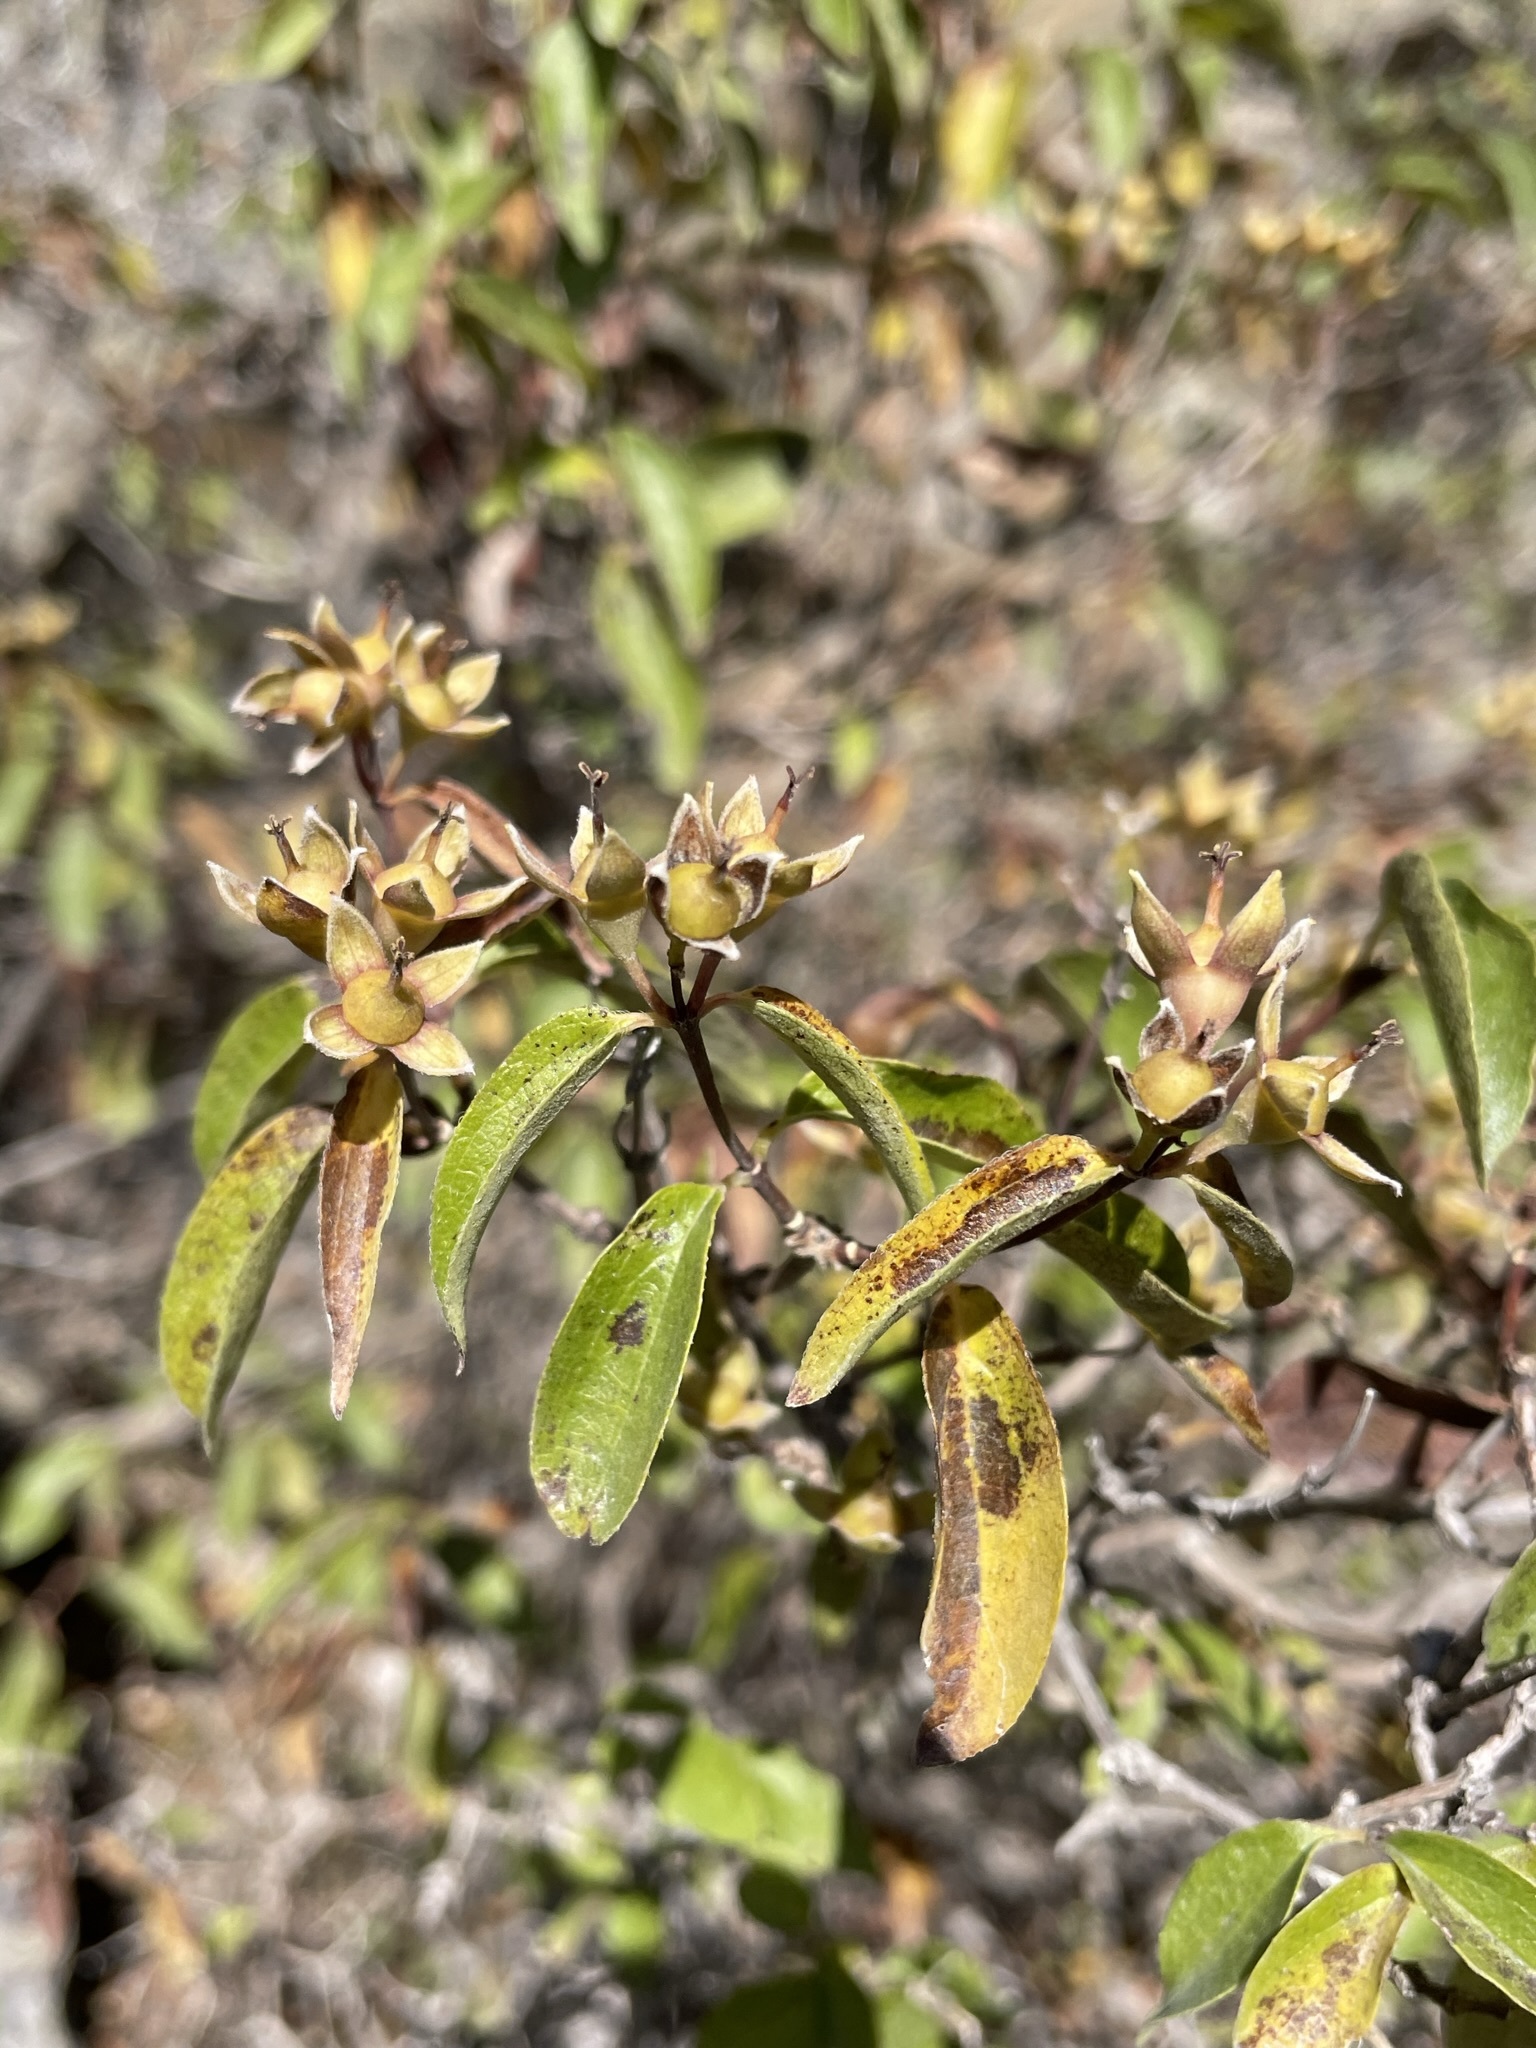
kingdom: Plantae
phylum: Tracheophyta
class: Magnoliopsida
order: Cornales
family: Hydrangeaceae
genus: Philadelphus
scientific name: Philadelphus lewisii
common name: Lewis's mock orange
